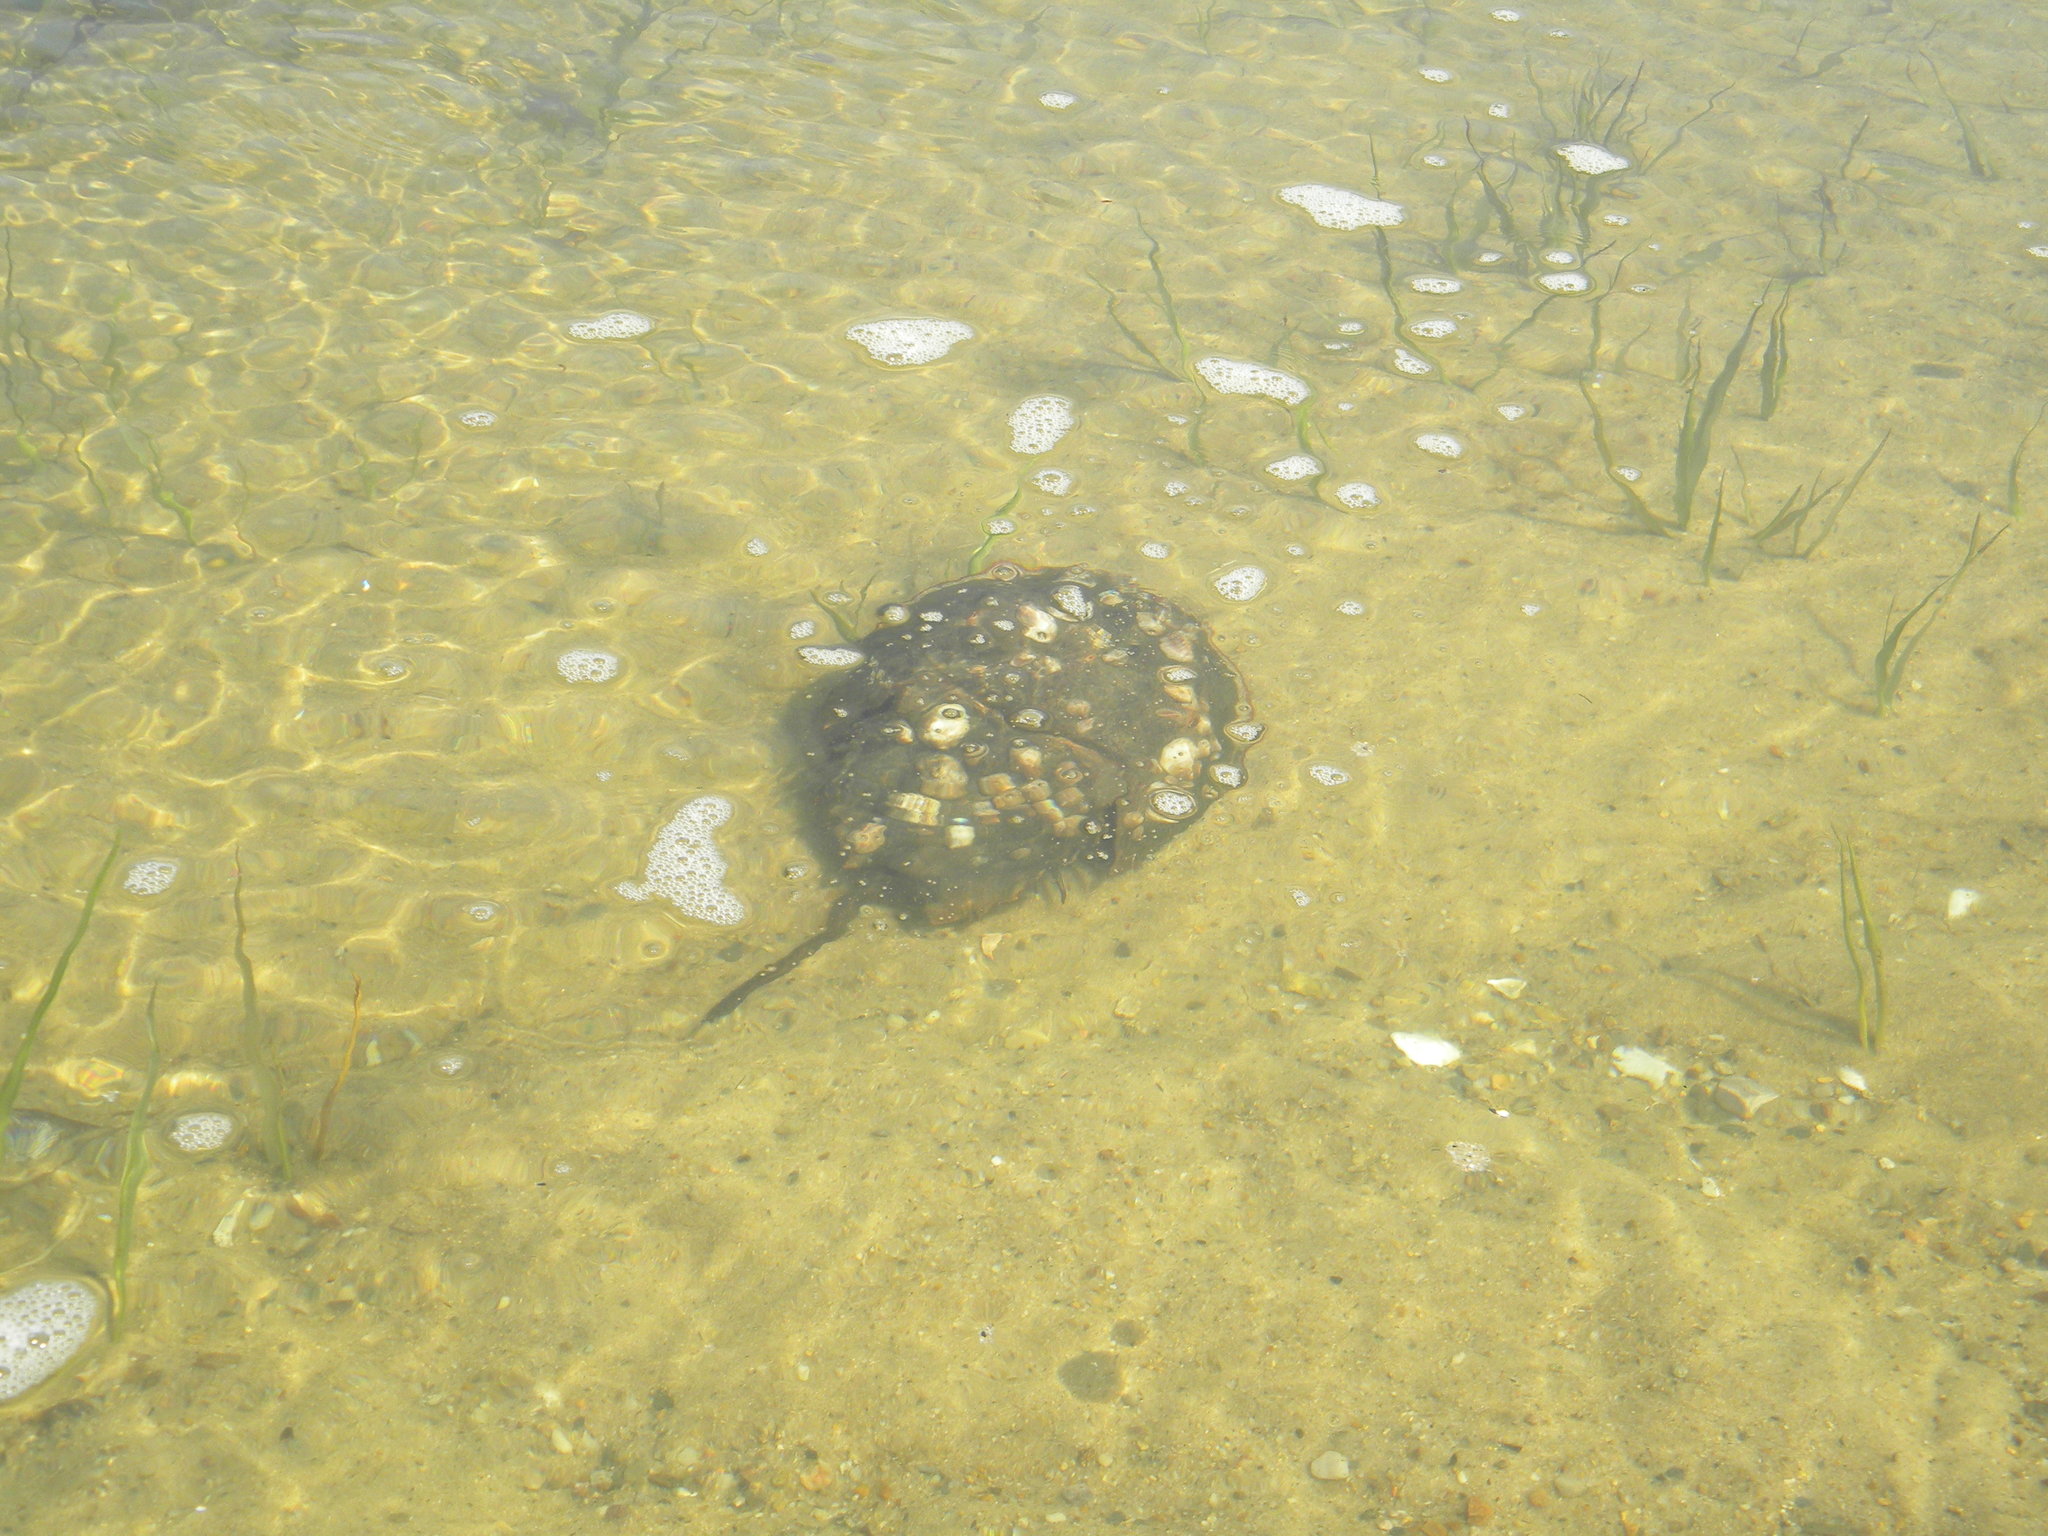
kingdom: Animalia
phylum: Arthropoda
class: Merostomata
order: Xiphosurida
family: Limulidae
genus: Limulus
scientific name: Limulus polyphemus
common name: Horseshoe crab
